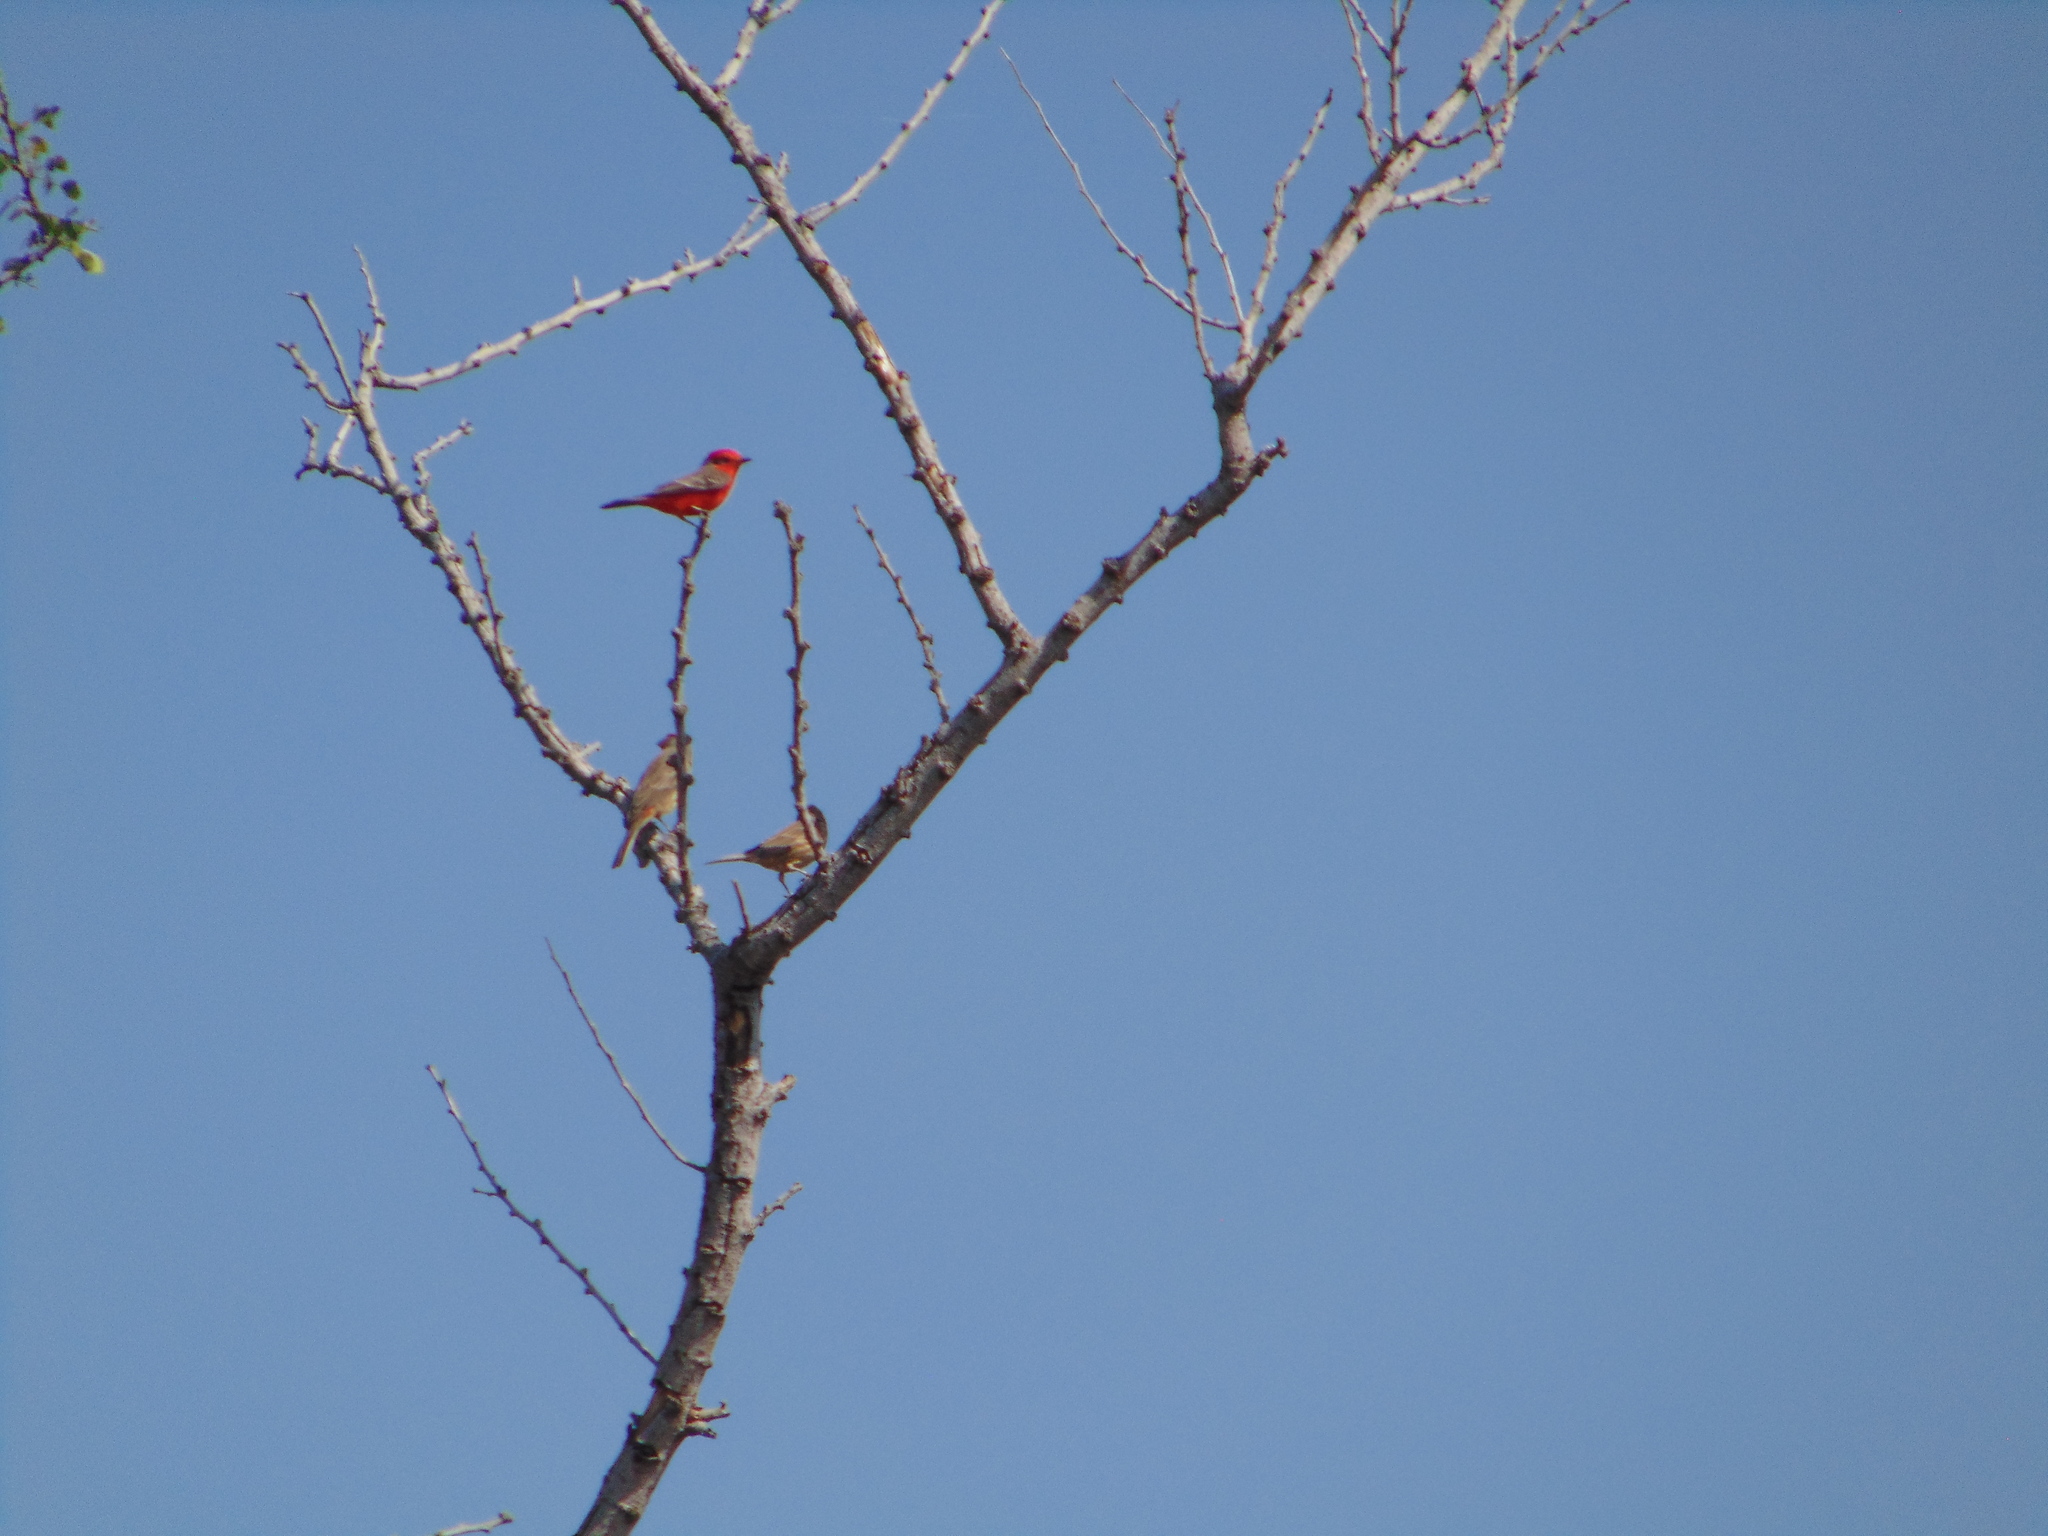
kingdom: Animalia
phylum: Chordata
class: Aves
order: Passeriformes
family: Tyrannidae
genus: Pyrocephalus
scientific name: Pyrocephalus rubinus
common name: Vermilion flycatcher
